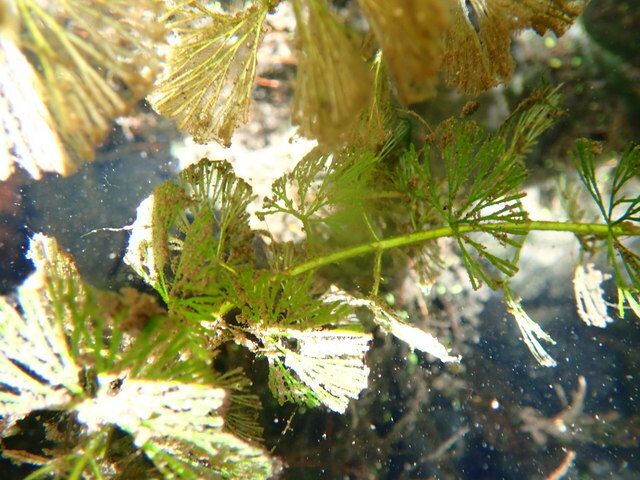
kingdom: Plantae
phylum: Tracheophyta
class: Magnoliopsida
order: Nymphaeales
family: Cabombaceae
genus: Cabomba
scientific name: Cabomba caroliniana
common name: Fanwort
